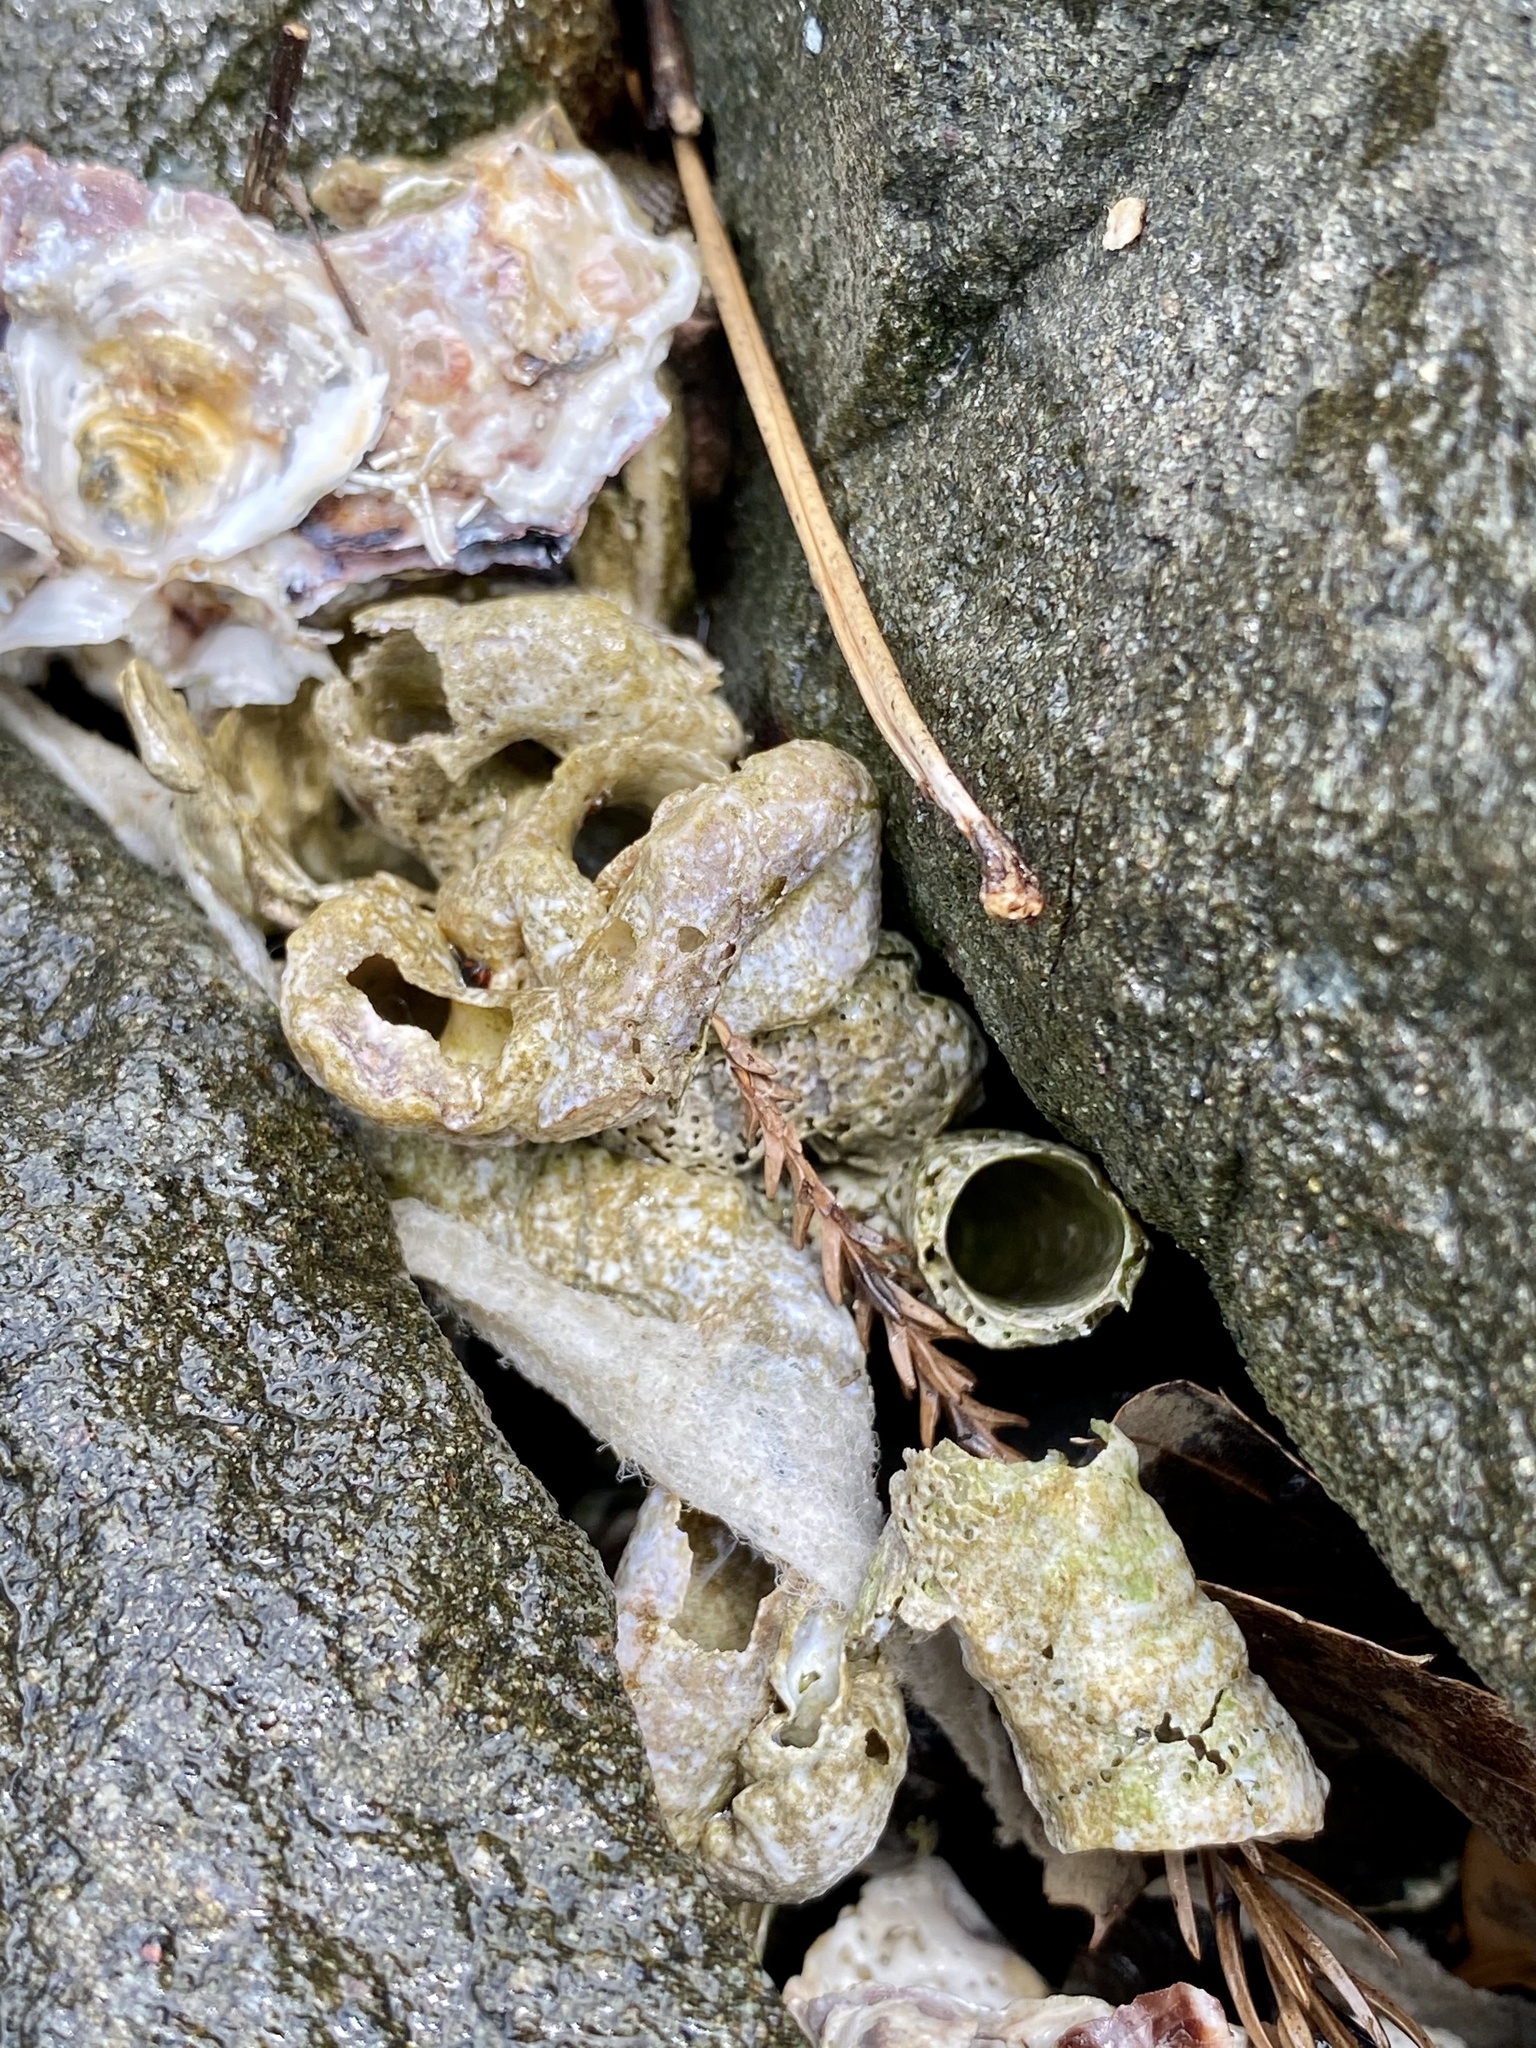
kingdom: Animalia
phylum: Mollusca
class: Gastropoda
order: Littorinimorpha
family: Vermetidae
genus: Thylacodes
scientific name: Thylacodes adamsii
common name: Scaly worm shell
